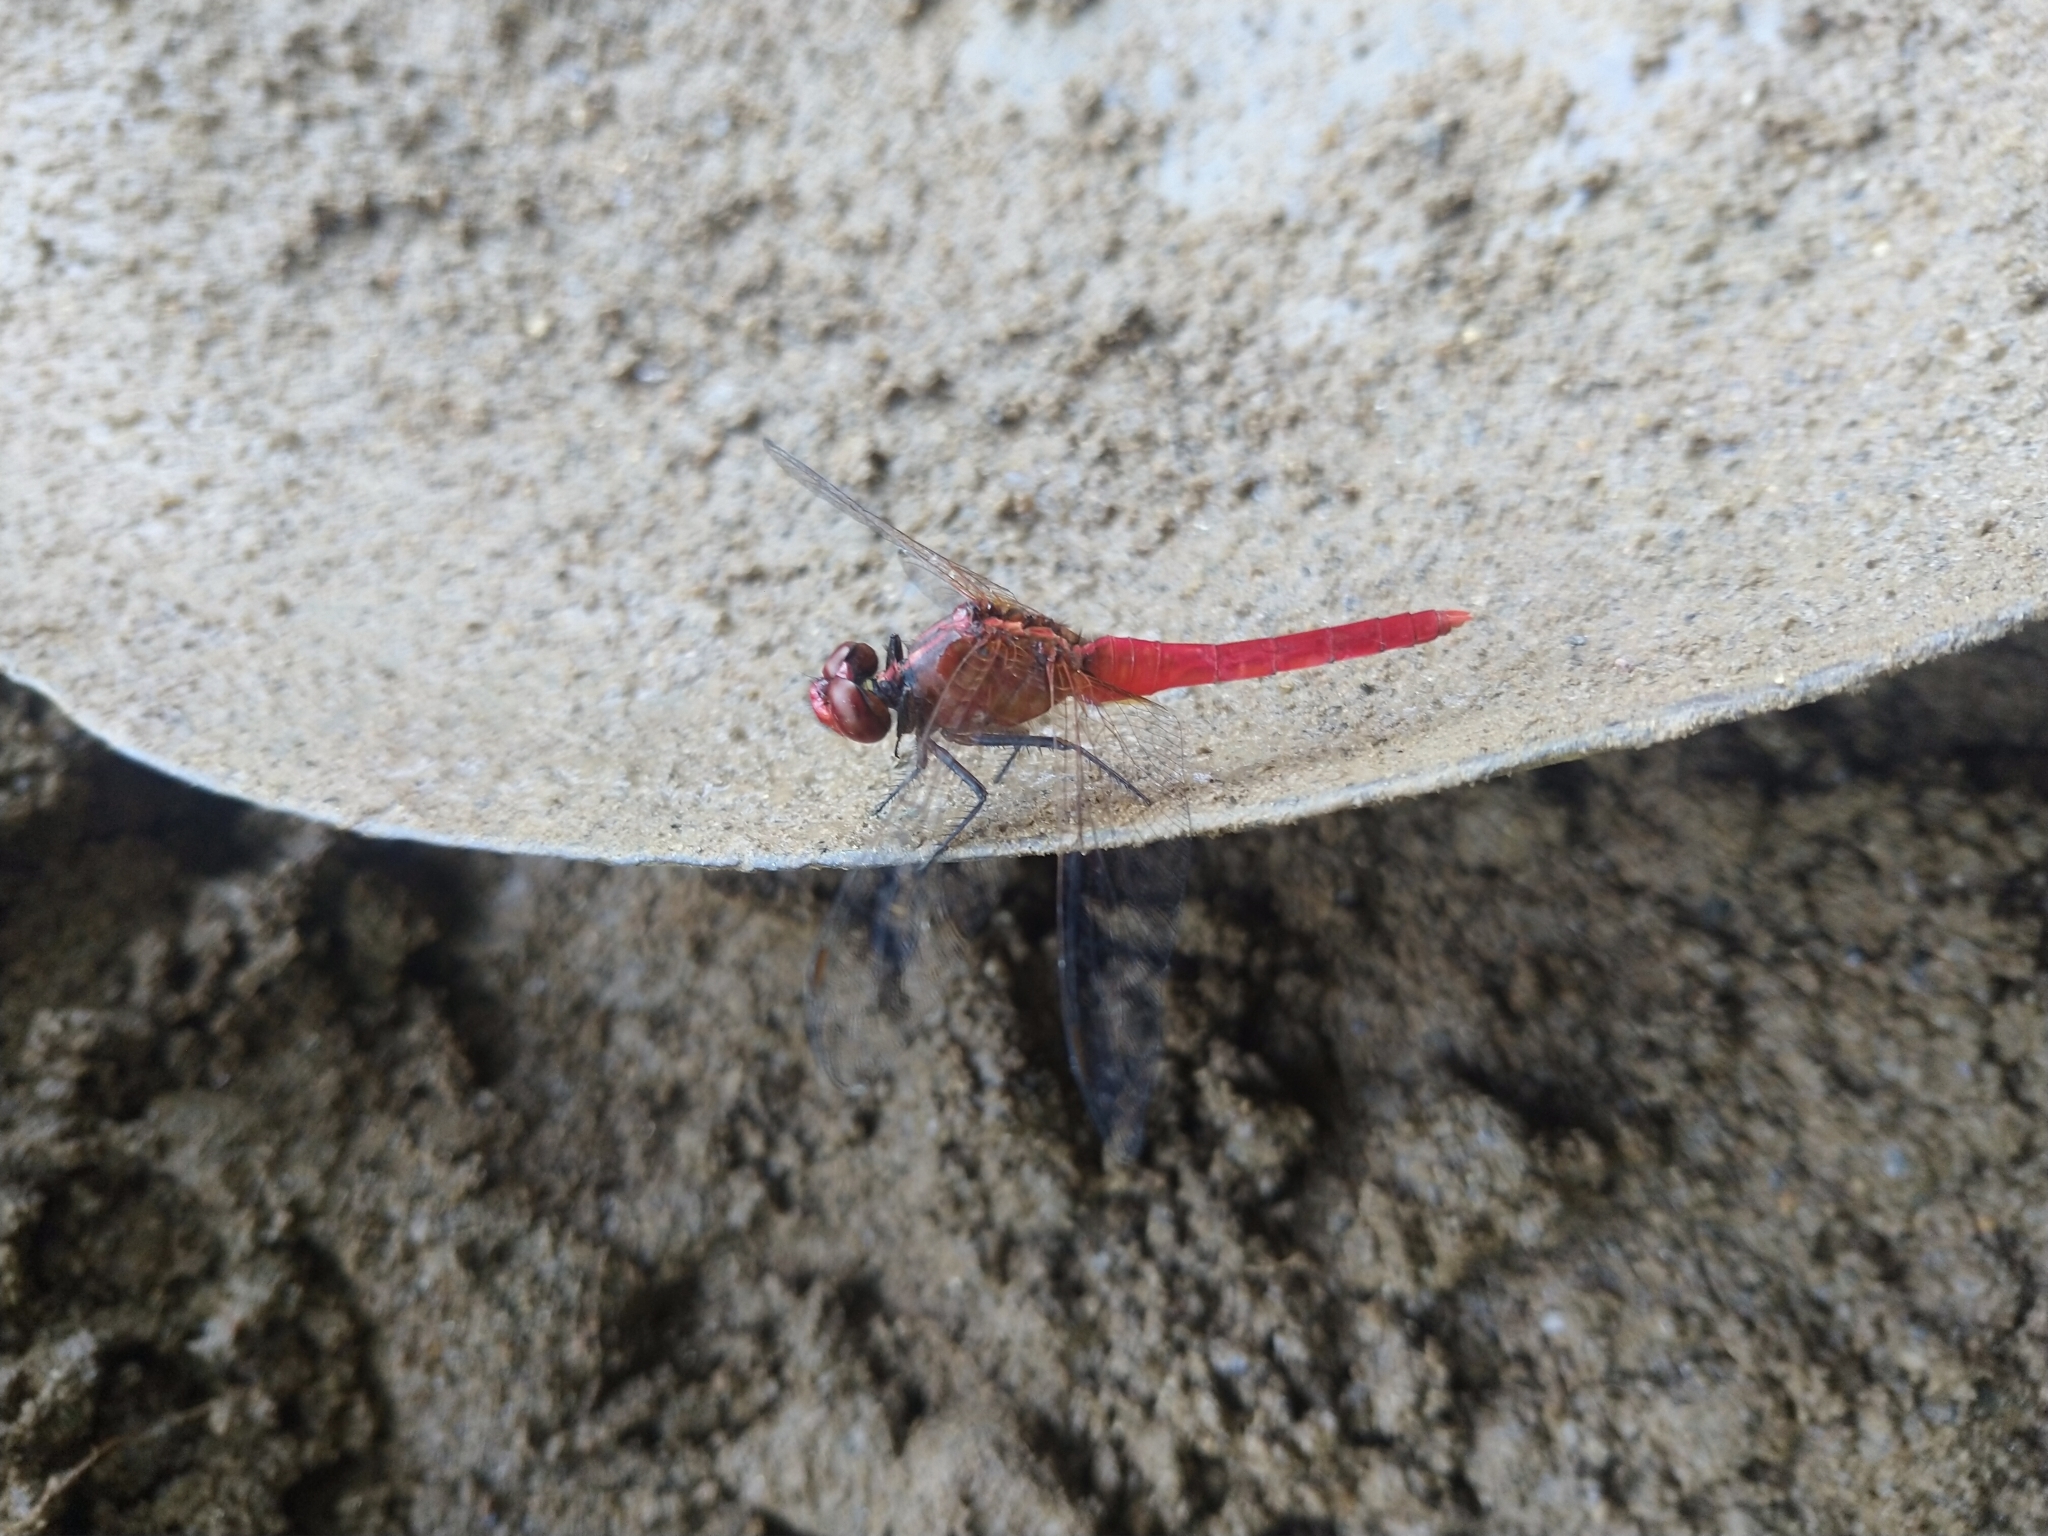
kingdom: Animalia
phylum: Arthropoda
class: Insecta
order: Odonata
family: Libellulidae
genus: Rhodothemis
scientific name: Rhodothemis rufa
